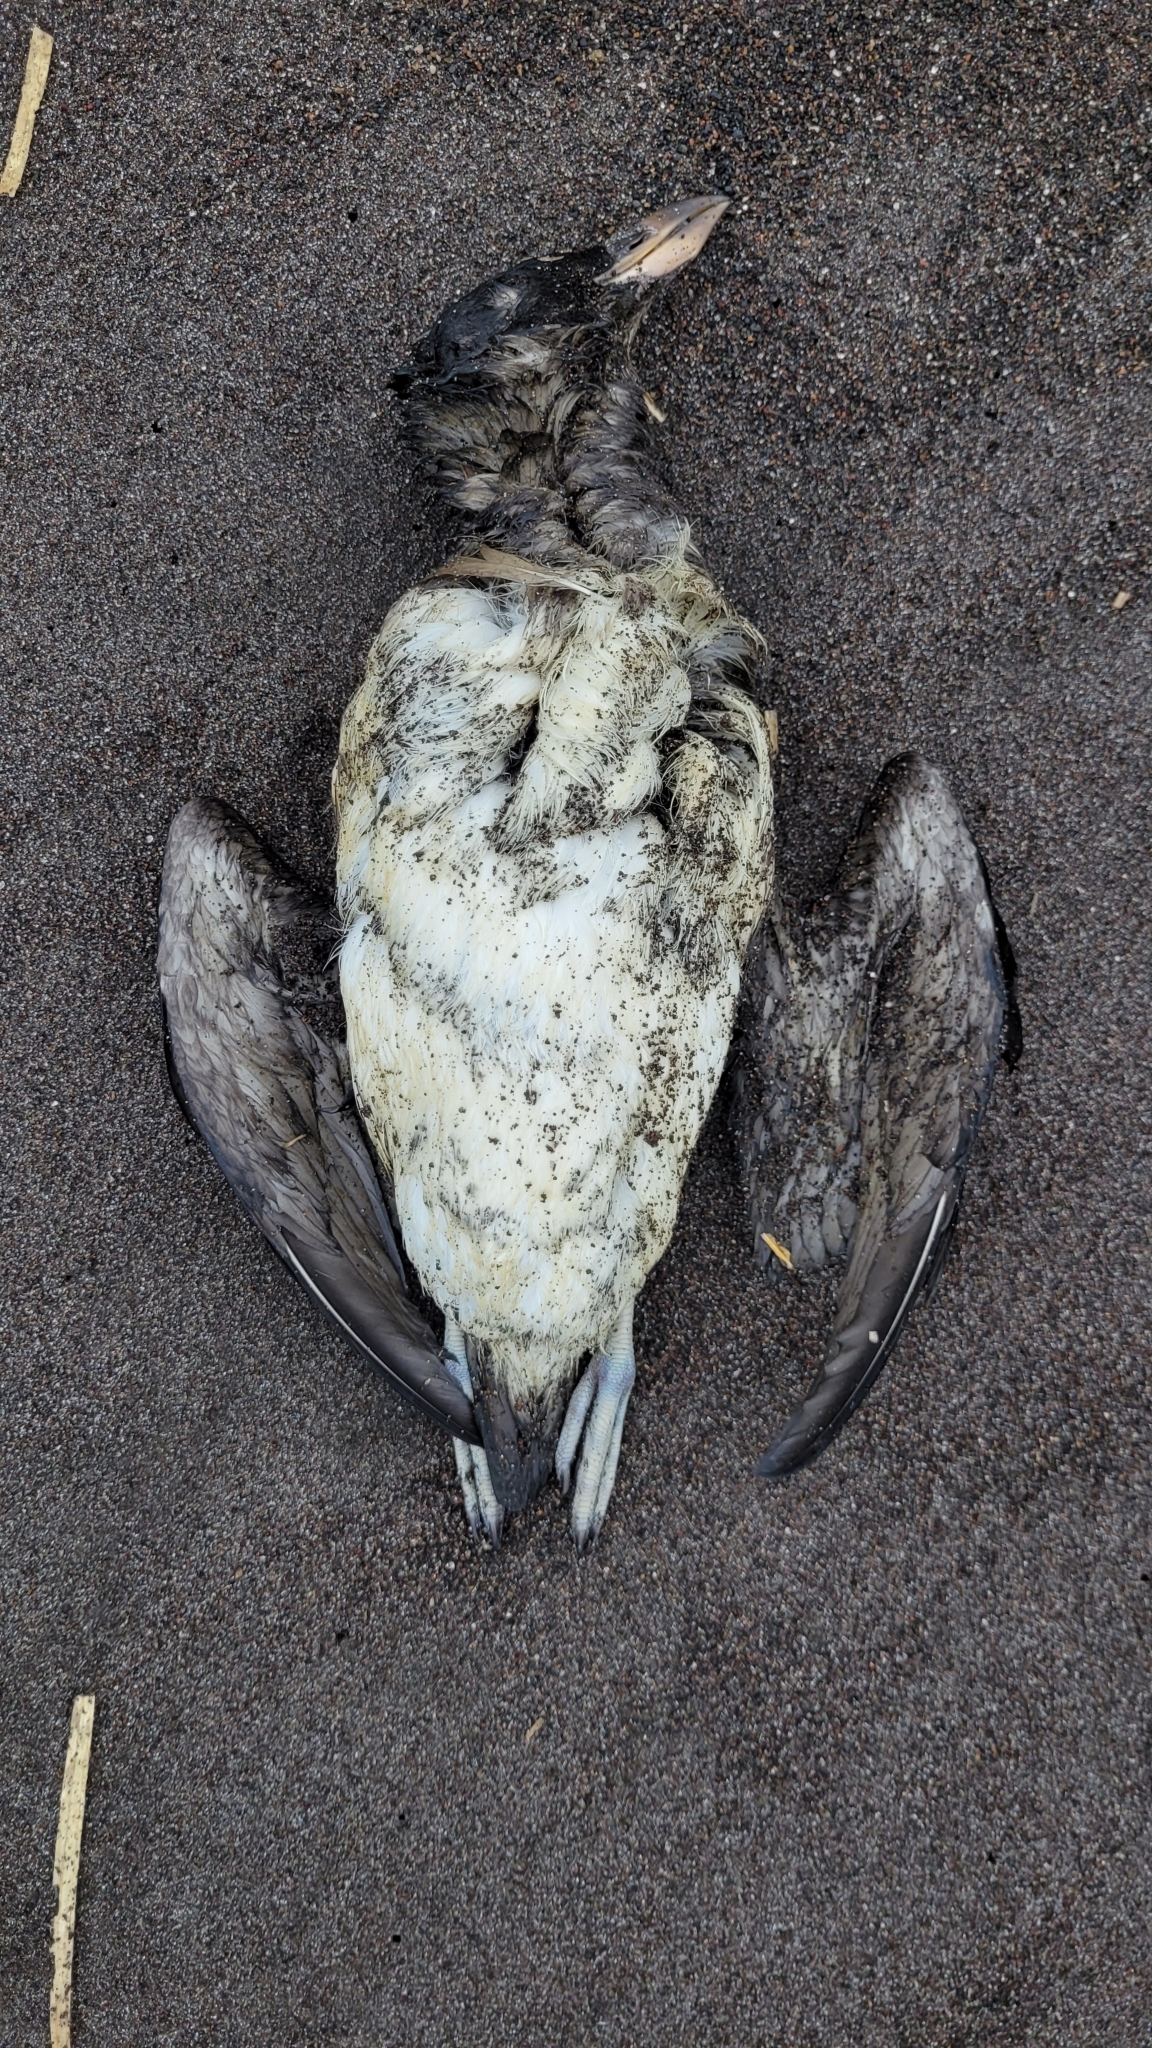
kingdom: Animalia
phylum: Chordata
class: Aves
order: Charadriiformes
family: Alcidae
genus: Cerorhinca
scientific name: Cerorhinca monocerata
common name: Rhinoceros auklet
